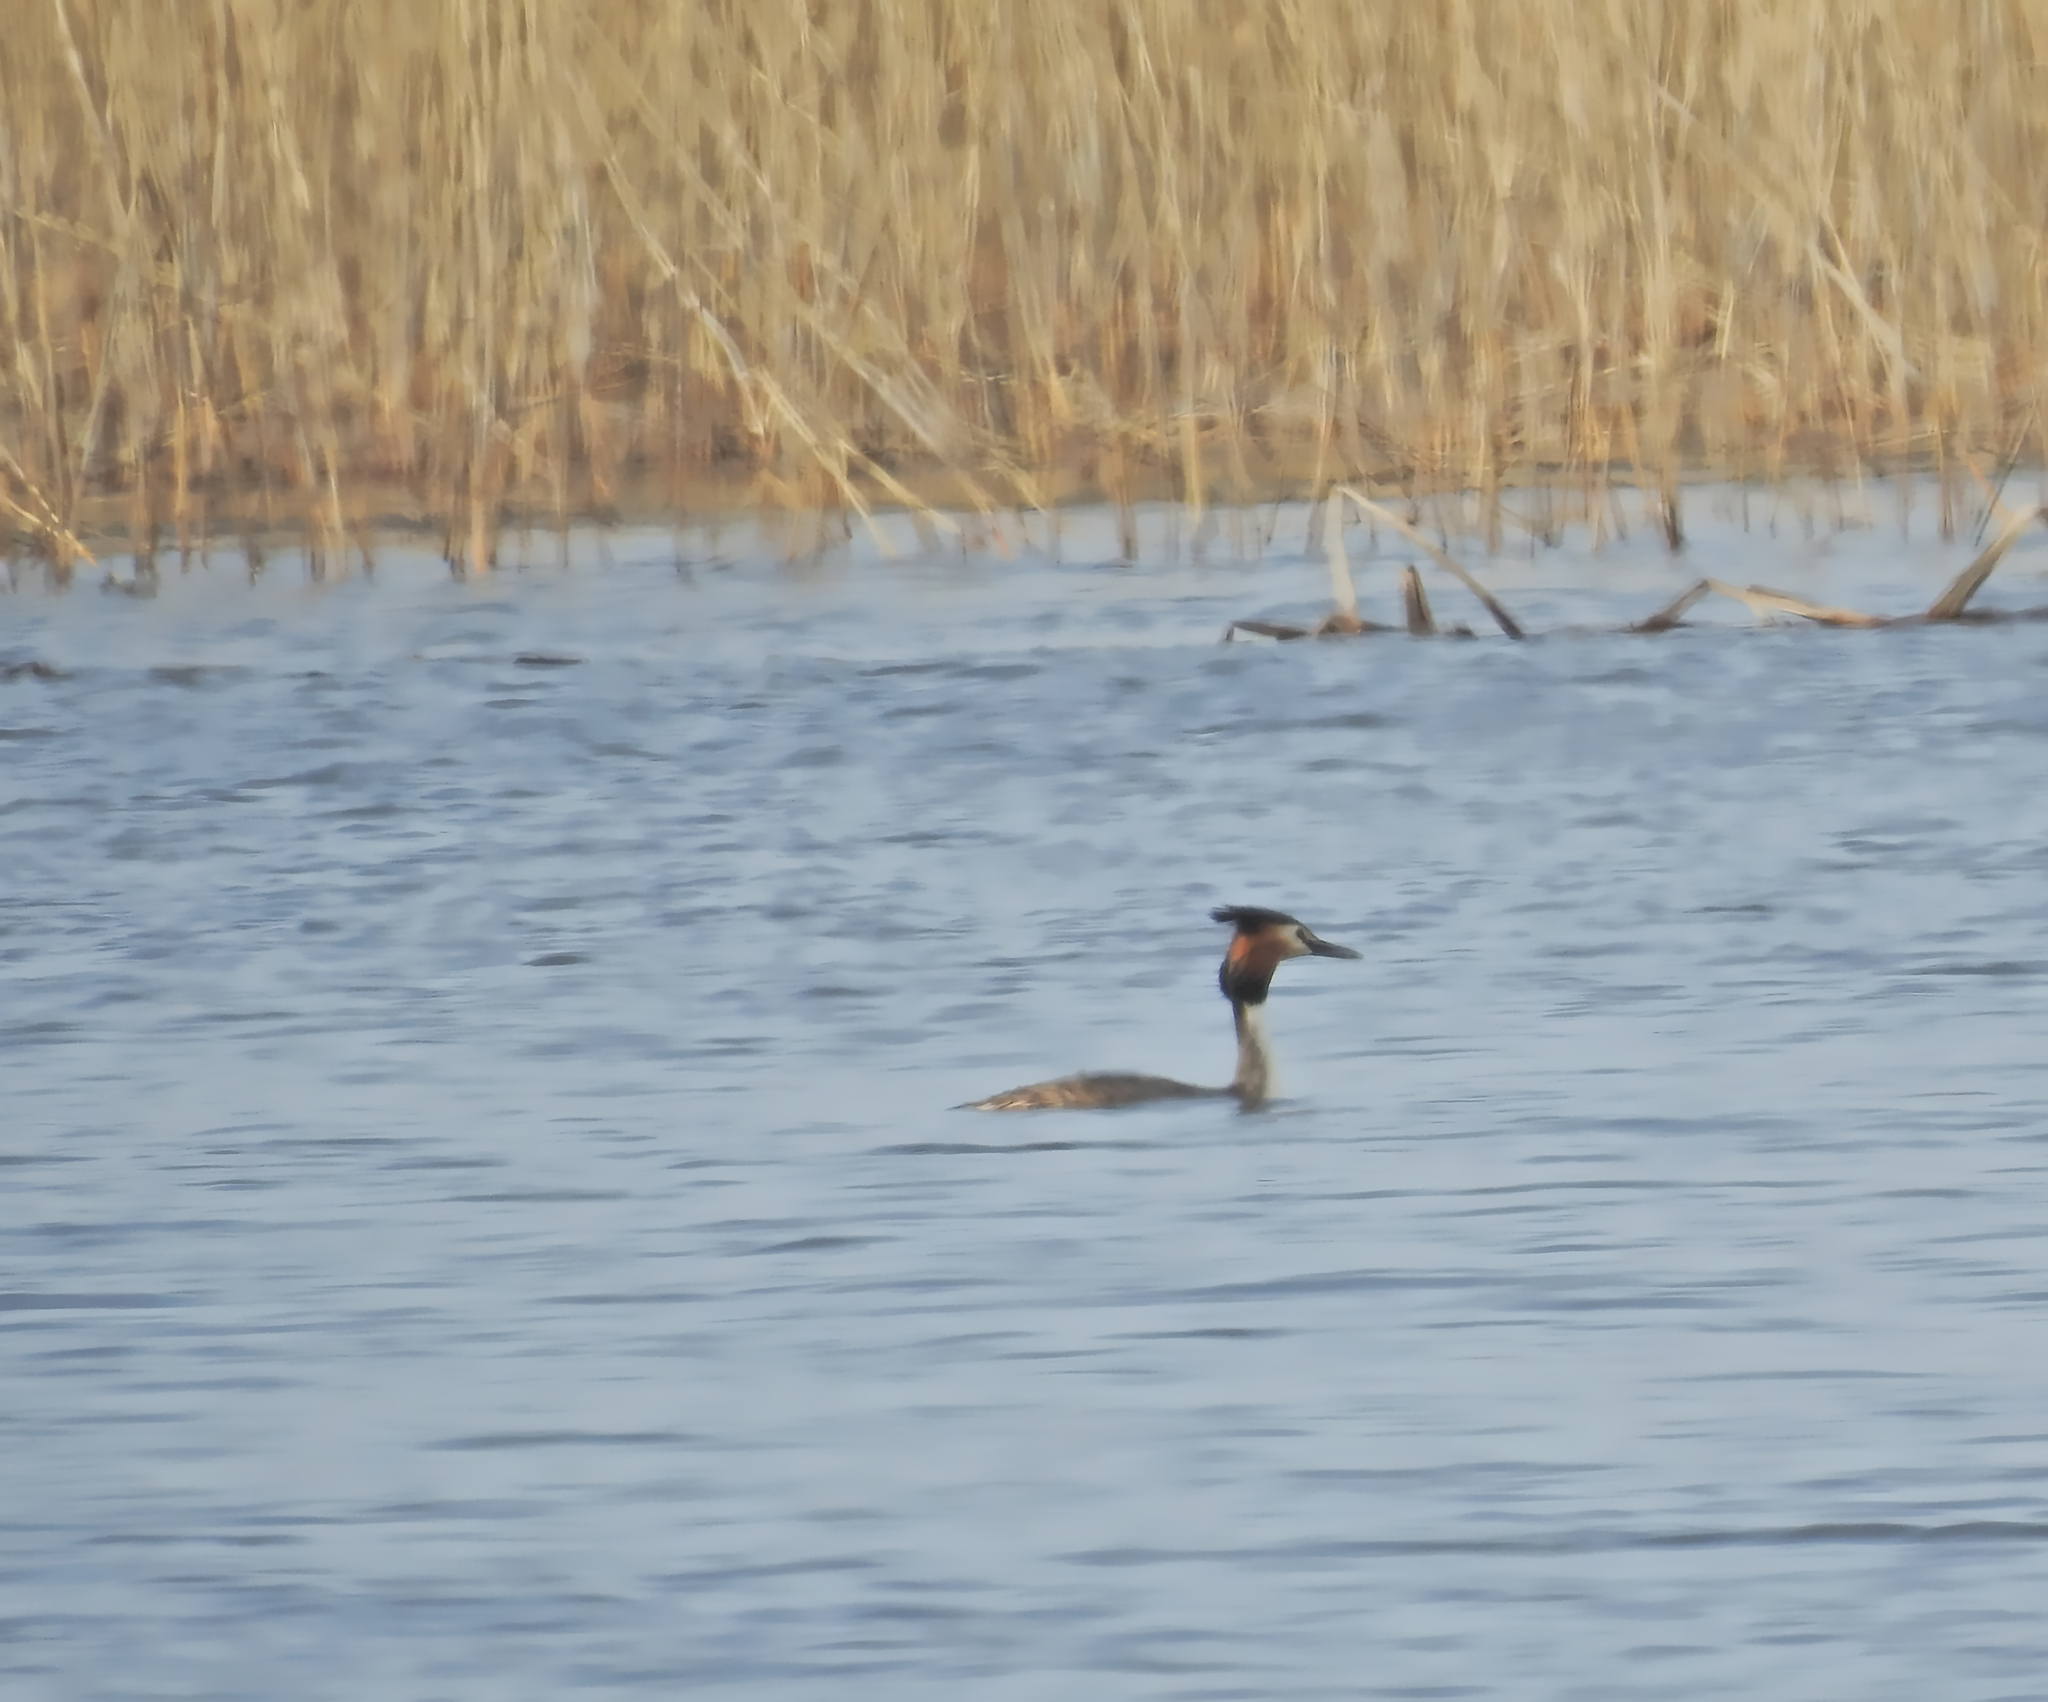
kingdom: Animalia
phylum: Chordata
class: Aves
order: Podicipediformes
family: Podicipedidae
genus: Podiceps
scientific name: Podiceps cristatus
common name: Great crested grebe
